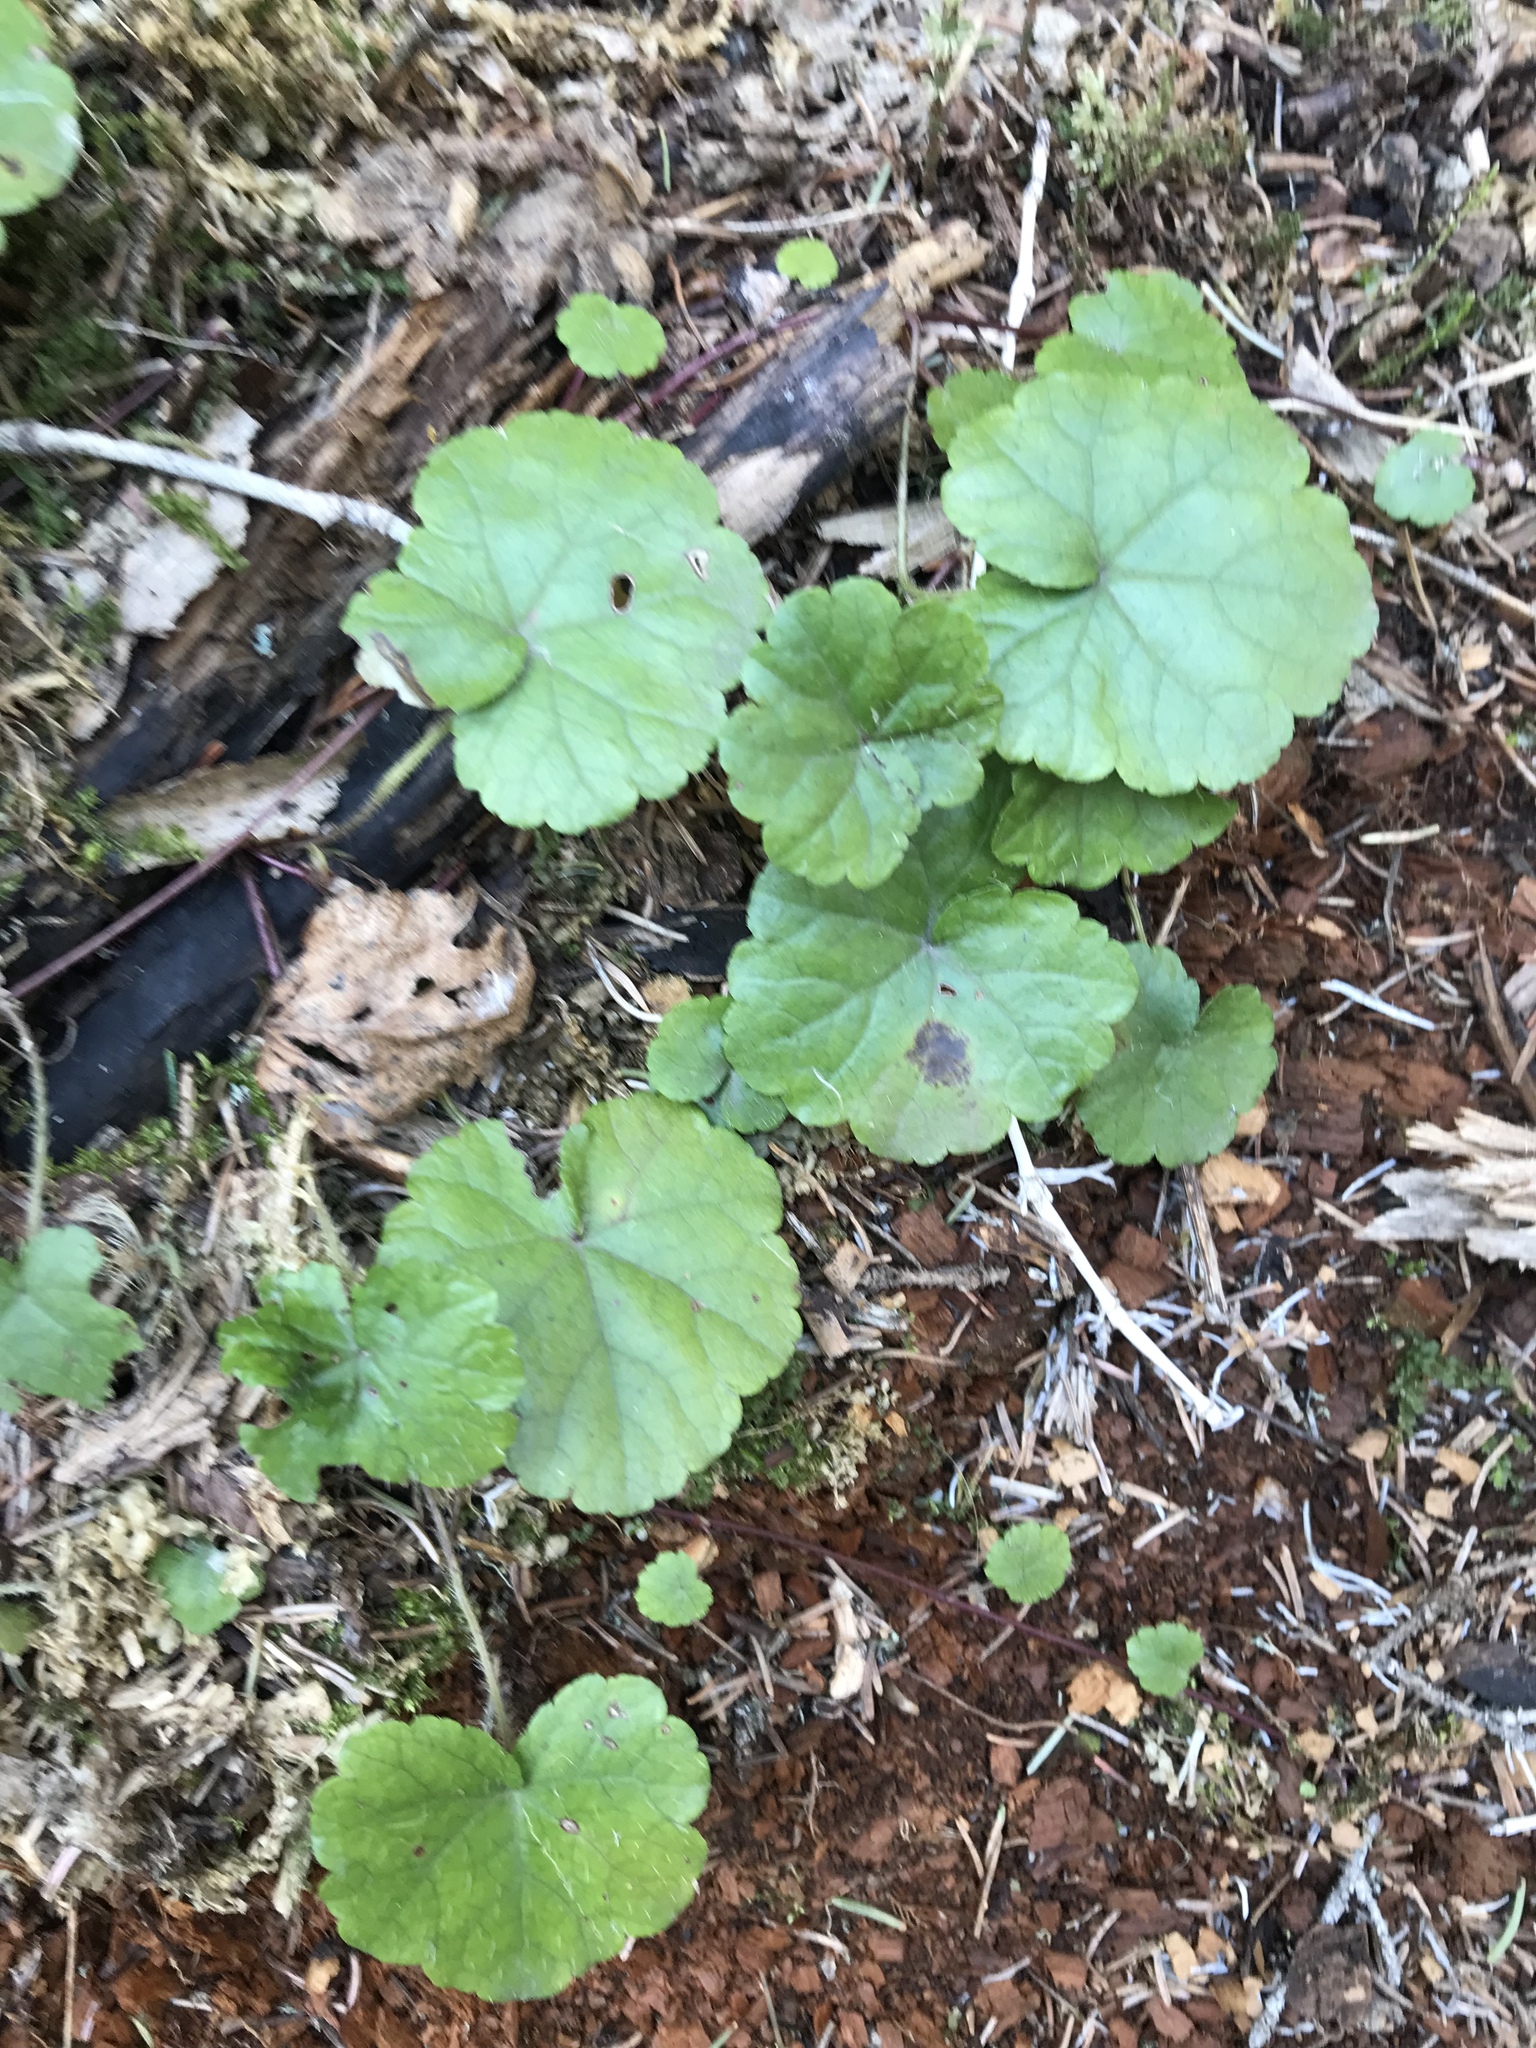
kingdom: Plantae
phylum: Tracheophyta
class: Magnoliopsida
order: Saxifragales
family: Saxifragaceae
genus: Mitella
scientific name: Mitella nuda
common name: Bare-stemmed bishop's-cap
